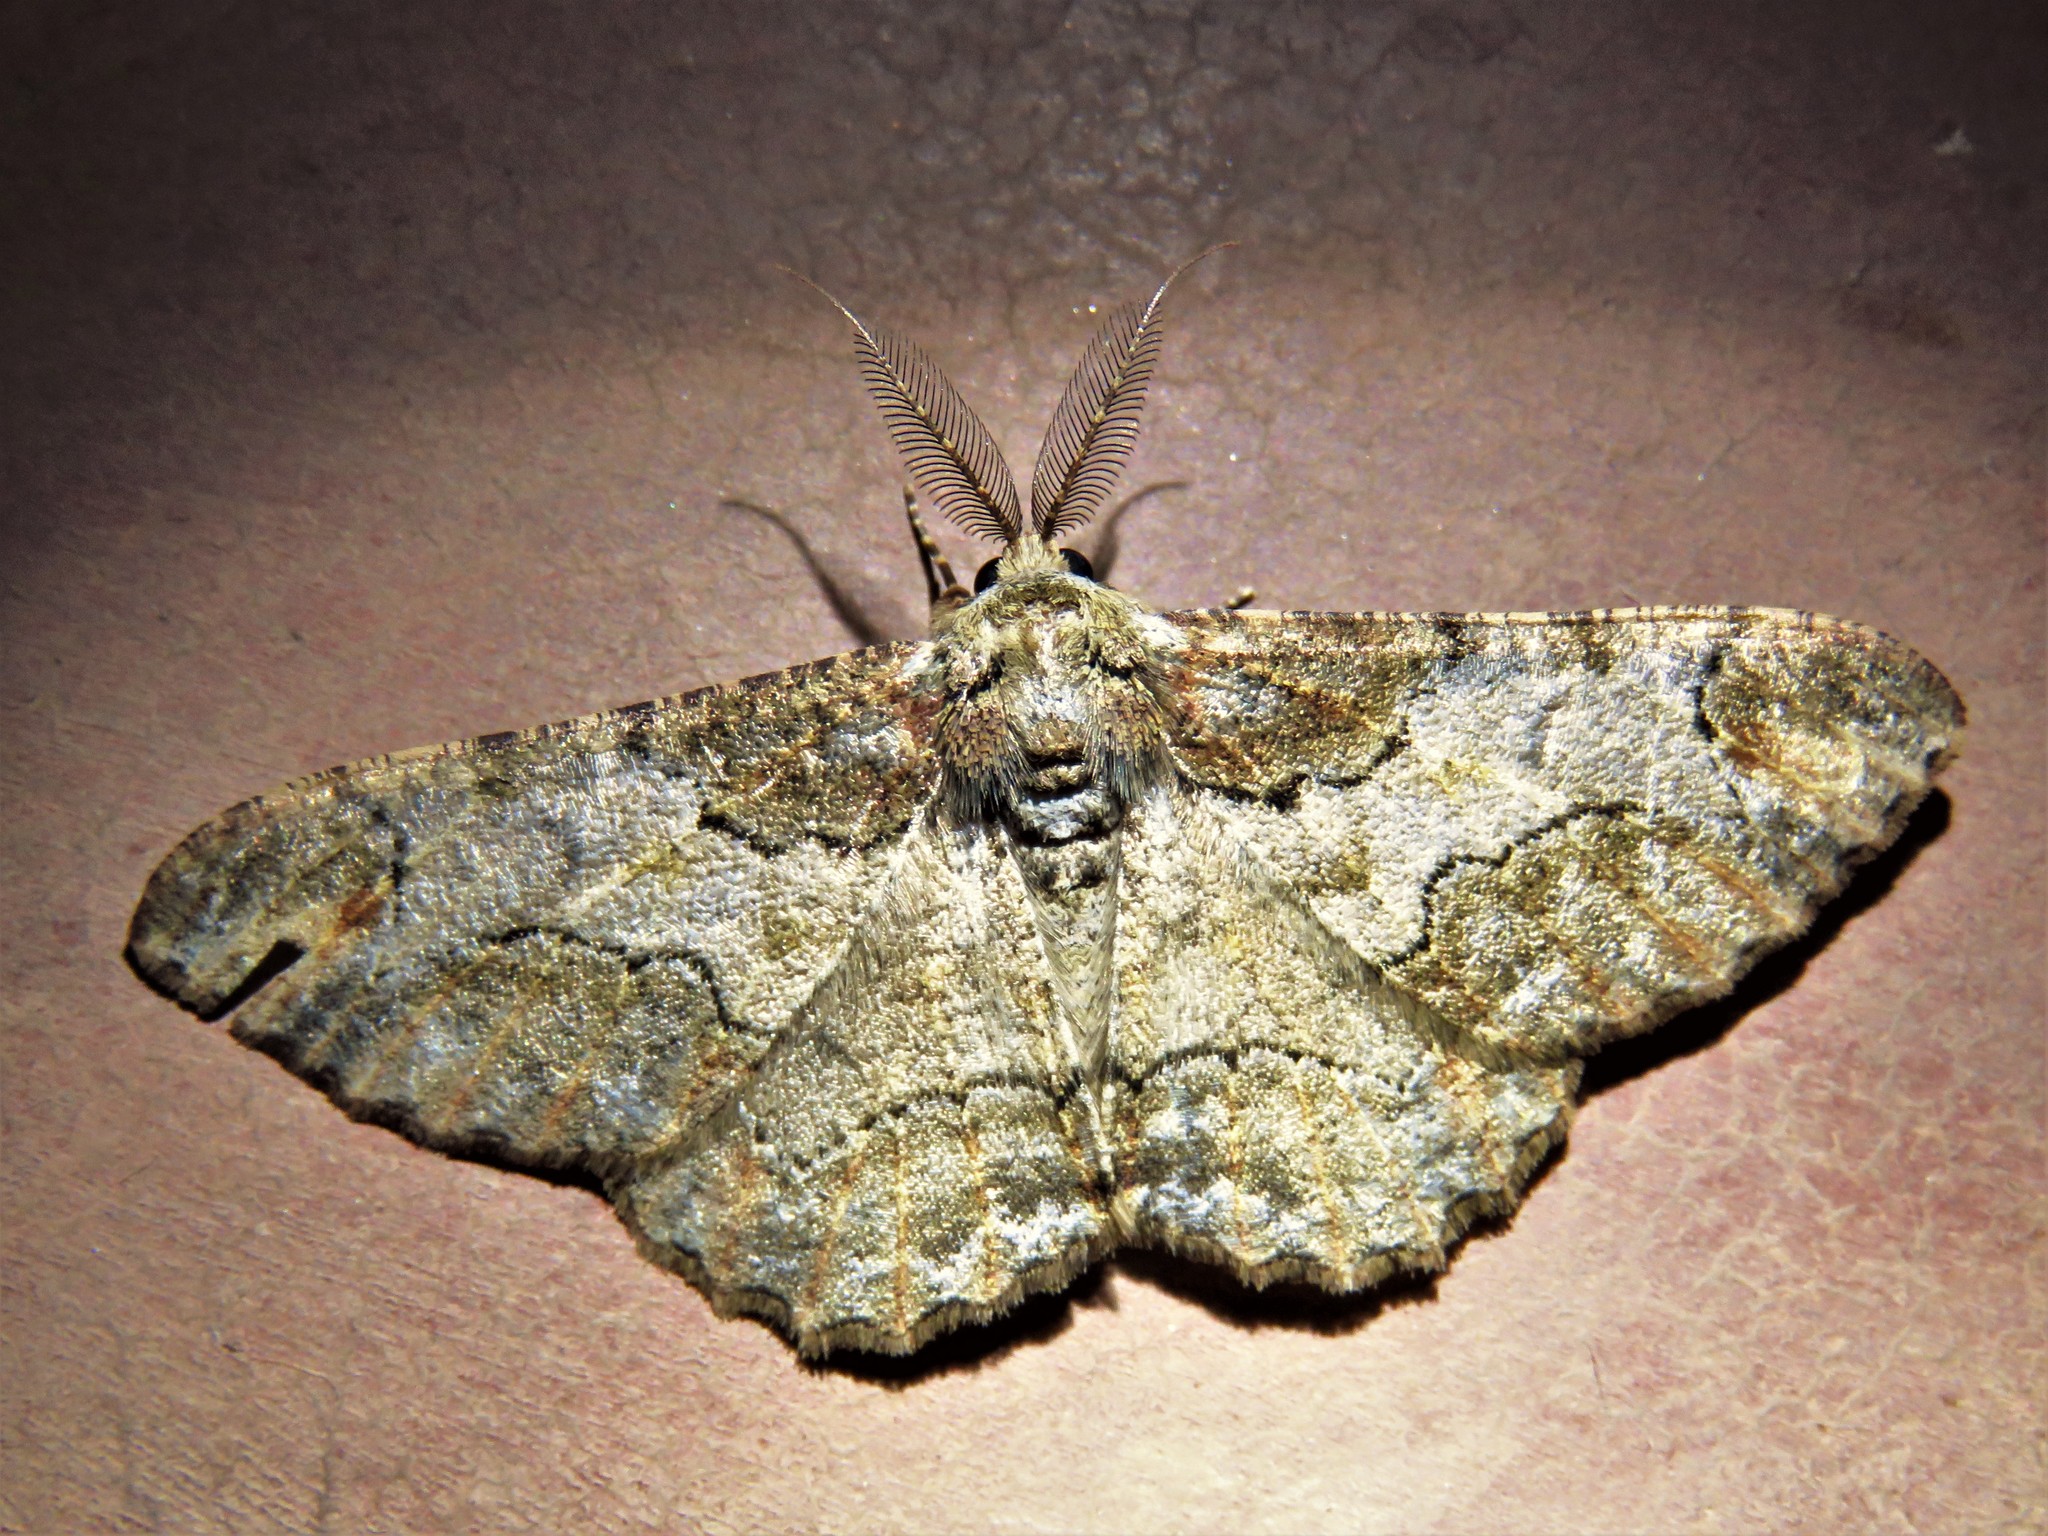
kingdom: Animalia
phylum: Arthropoda
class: Insecta
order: Lepidoptera
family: Geometridae
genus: Colocleora
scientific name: Colocleora divisaria
